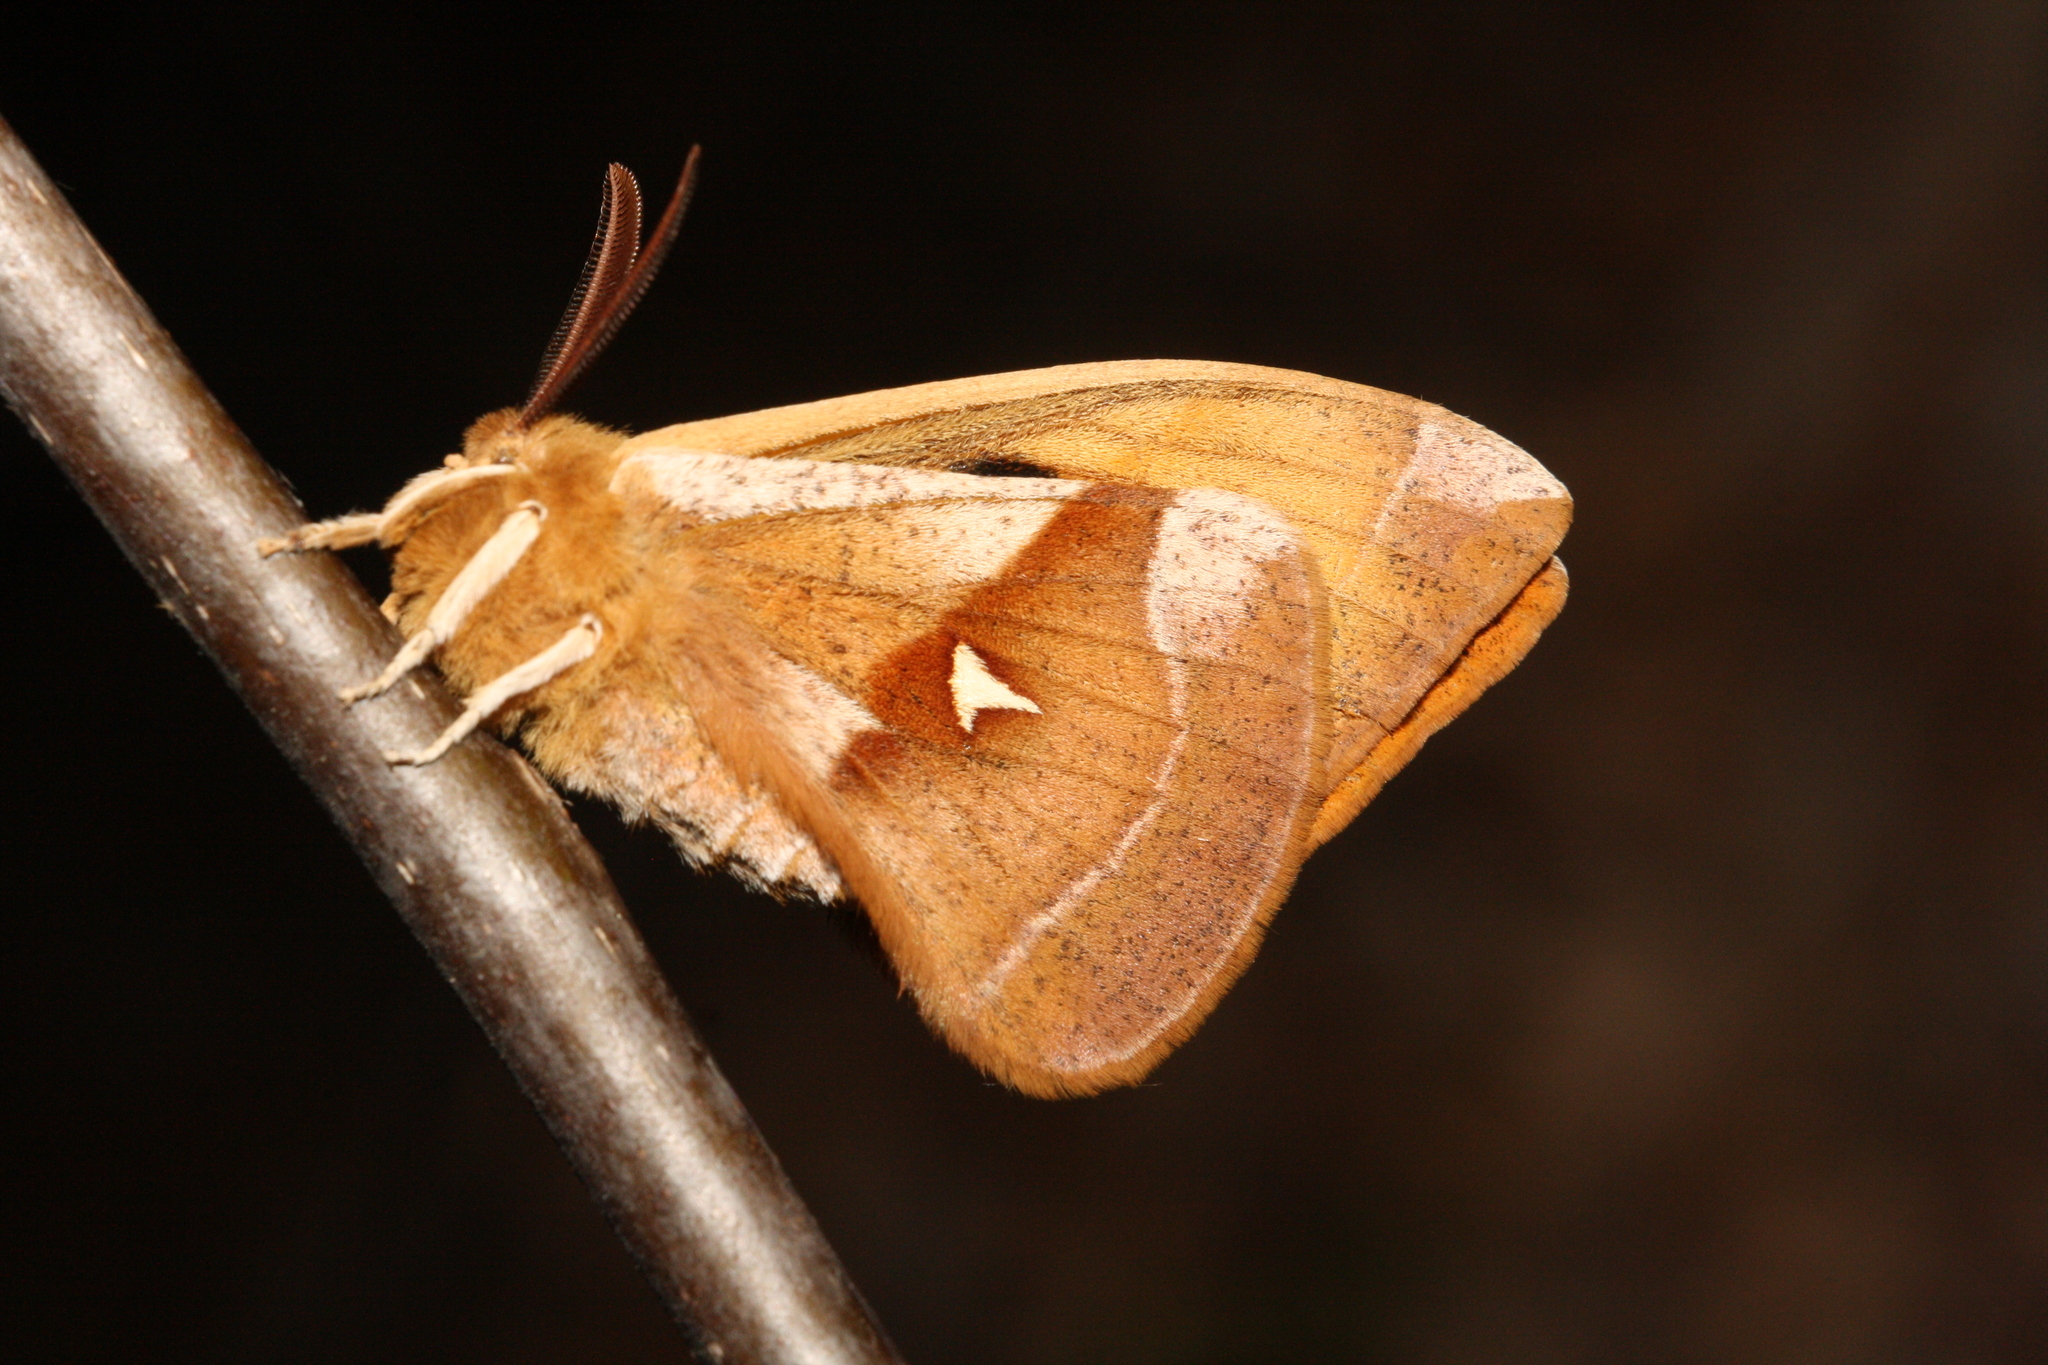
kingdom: Animalia
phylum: Arthropoda
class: Insecta
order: Lepidoptera
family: Saturniidae
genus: Aglia
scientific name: Aglia tau
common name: Tau emperor
